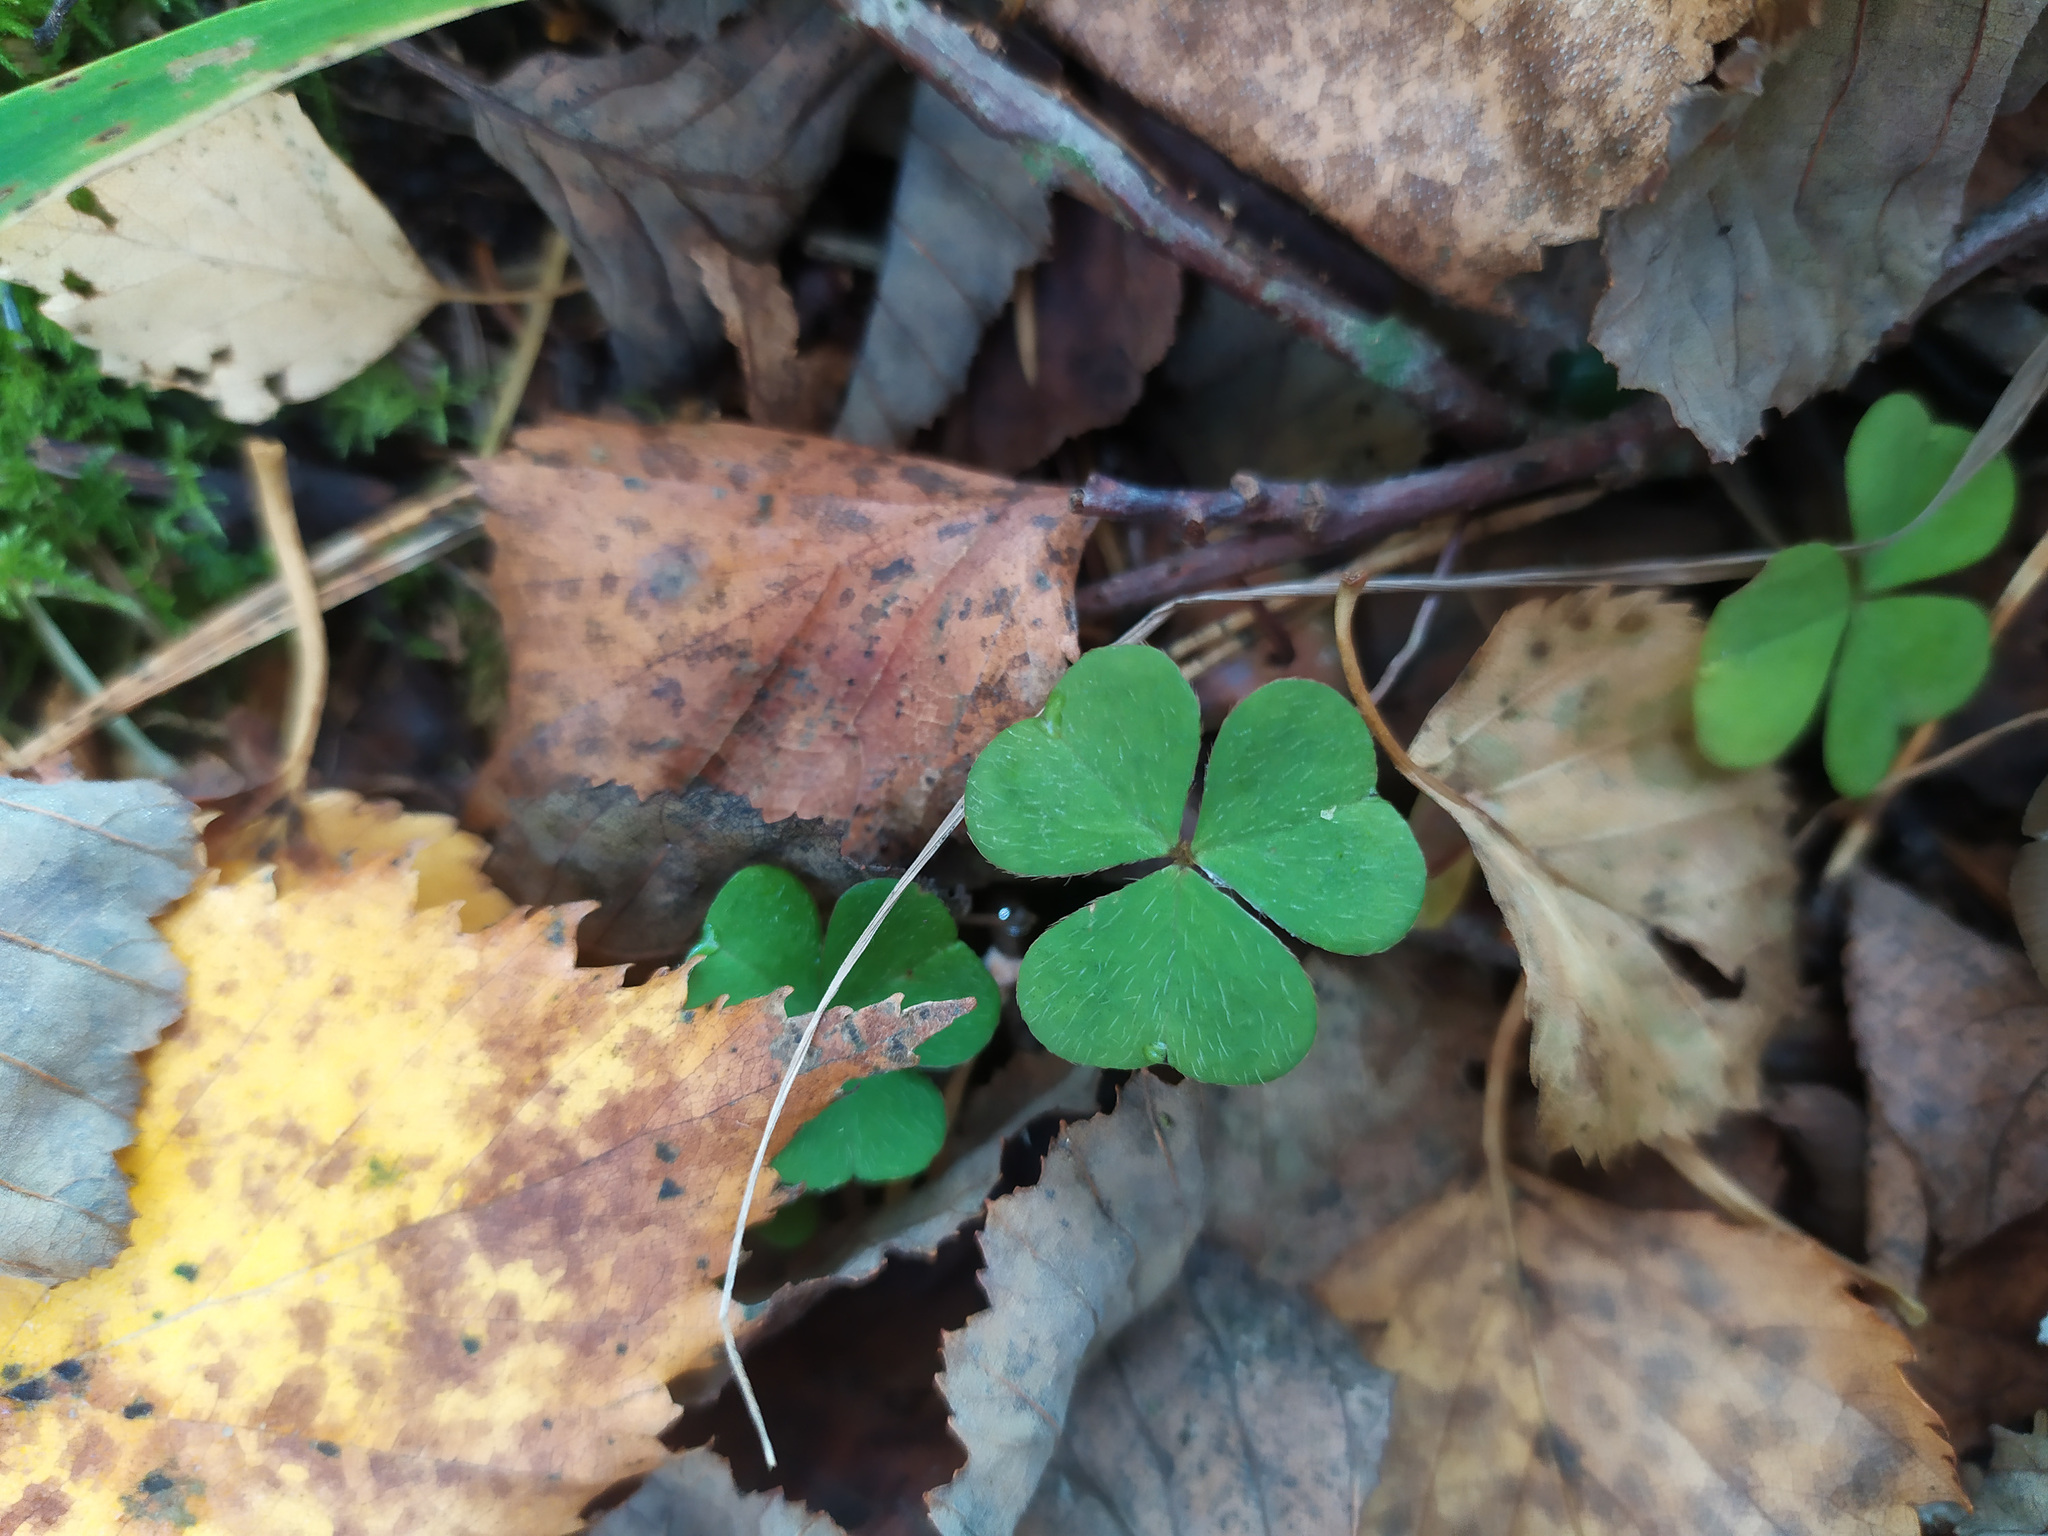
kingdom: Plantae
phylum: Tracheophyta
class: Magnoliopsida
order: Oxalidales
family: Oxalidaceae
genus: Oxalis
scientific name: Oxalis acetosella
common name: Wood-sorrel
